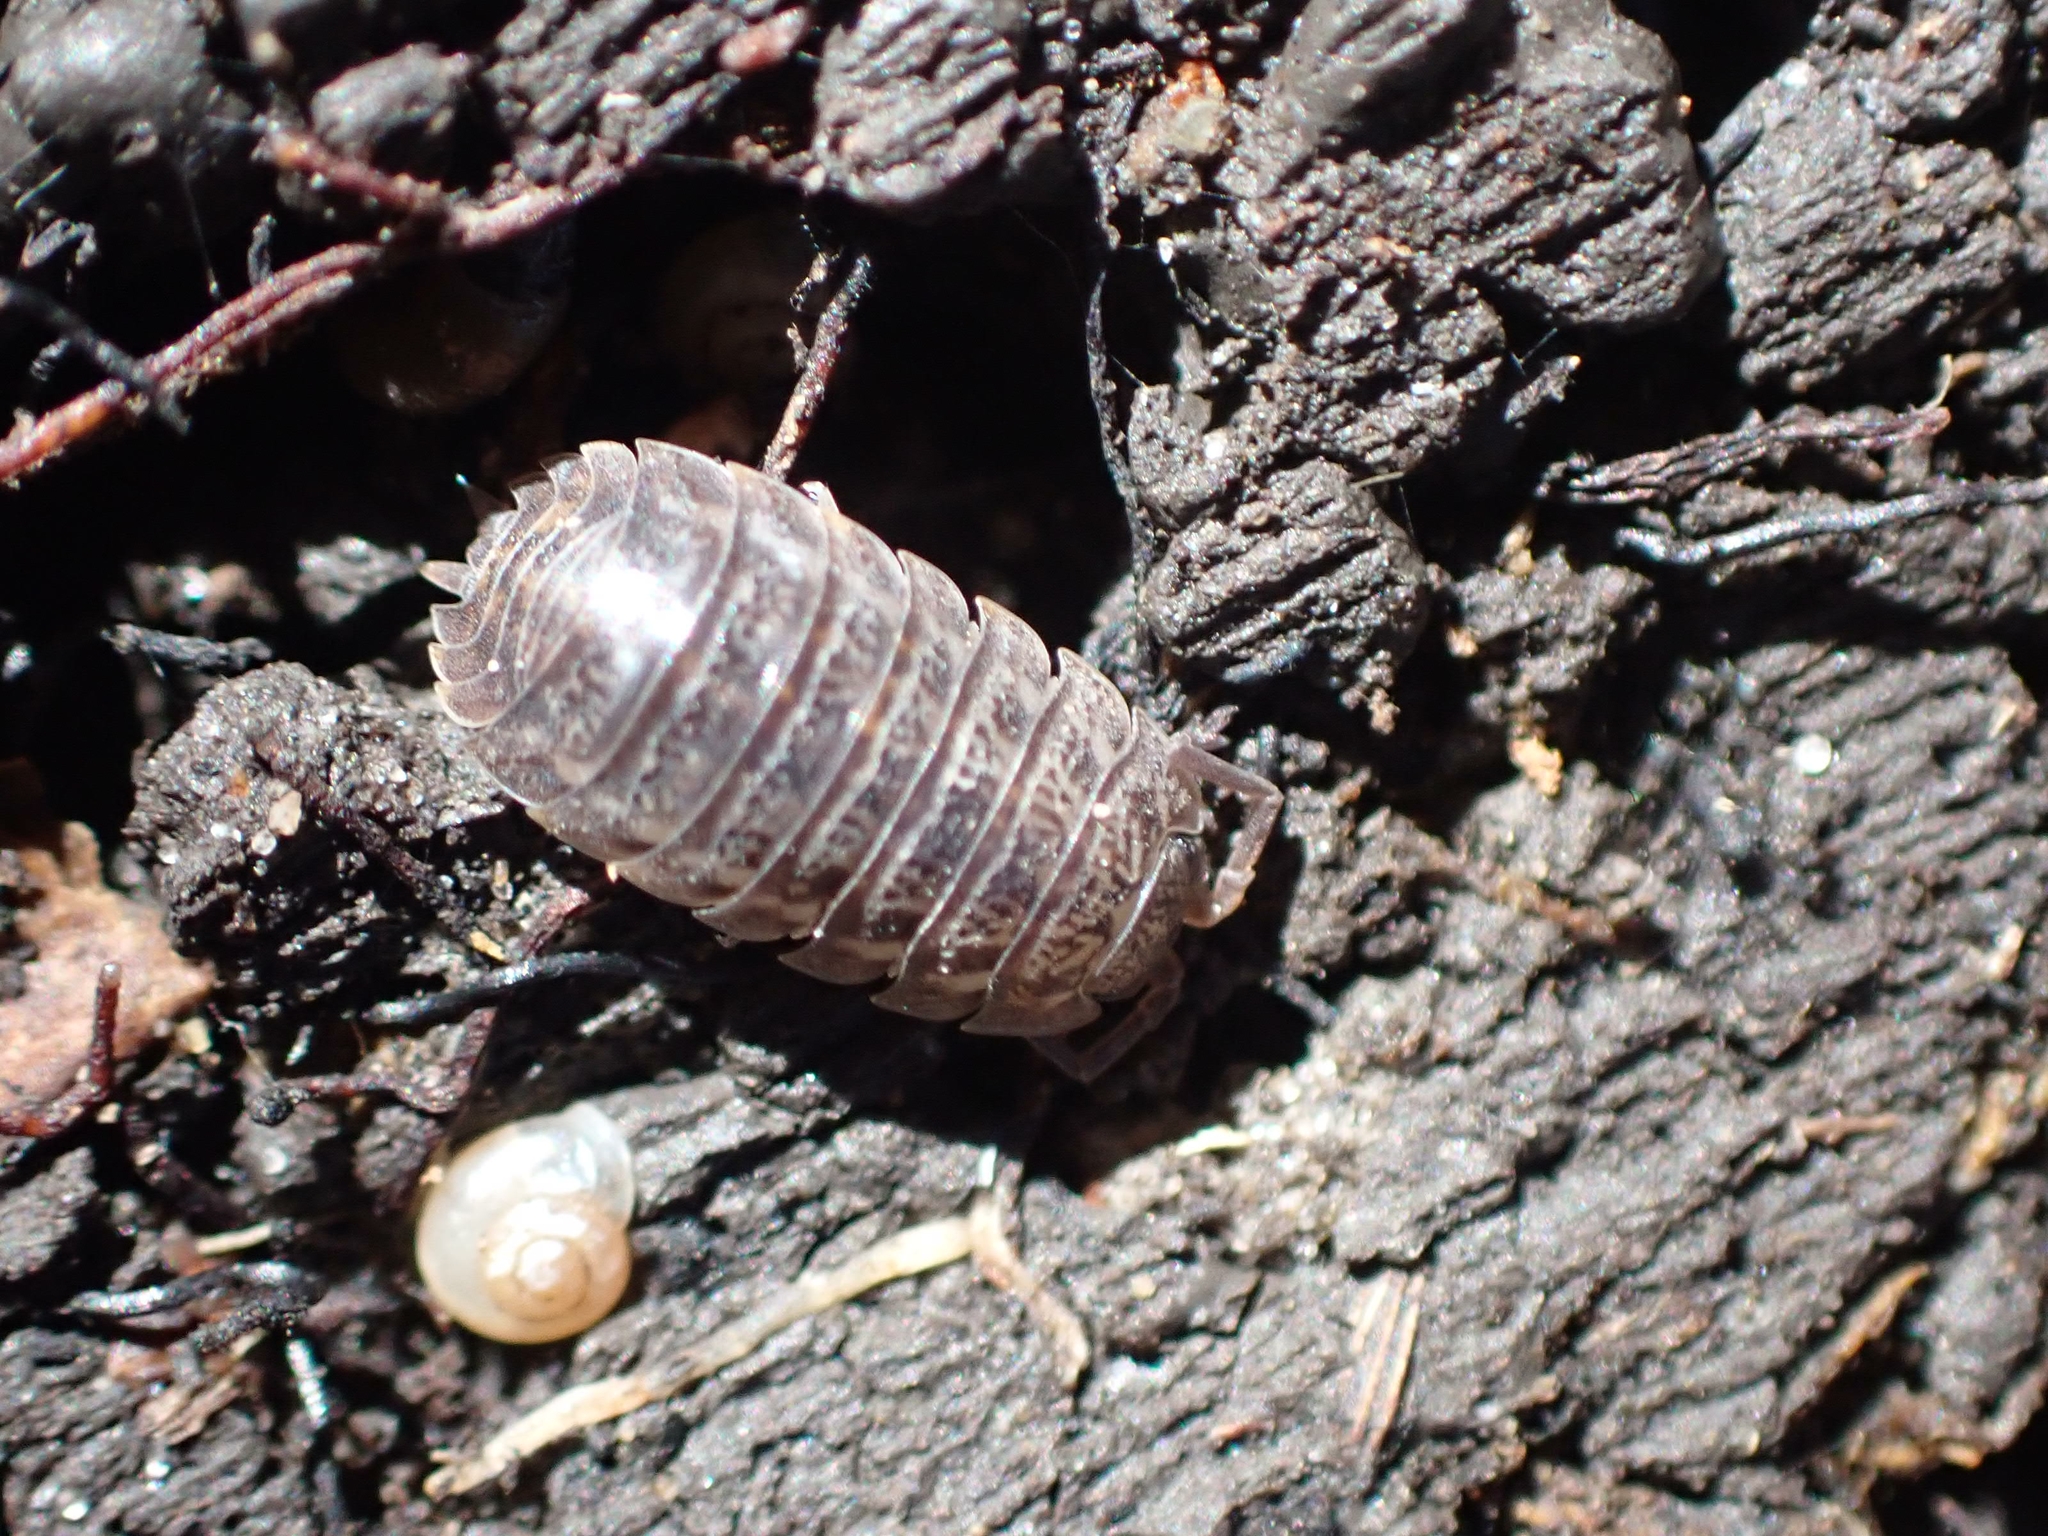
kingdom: Animalia
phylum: Arthropoda
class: Malacostraca
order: Isopoda
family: Trachelipodidae
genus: Trachelipus
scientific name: Trachelipus rathkii
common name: Isopod
